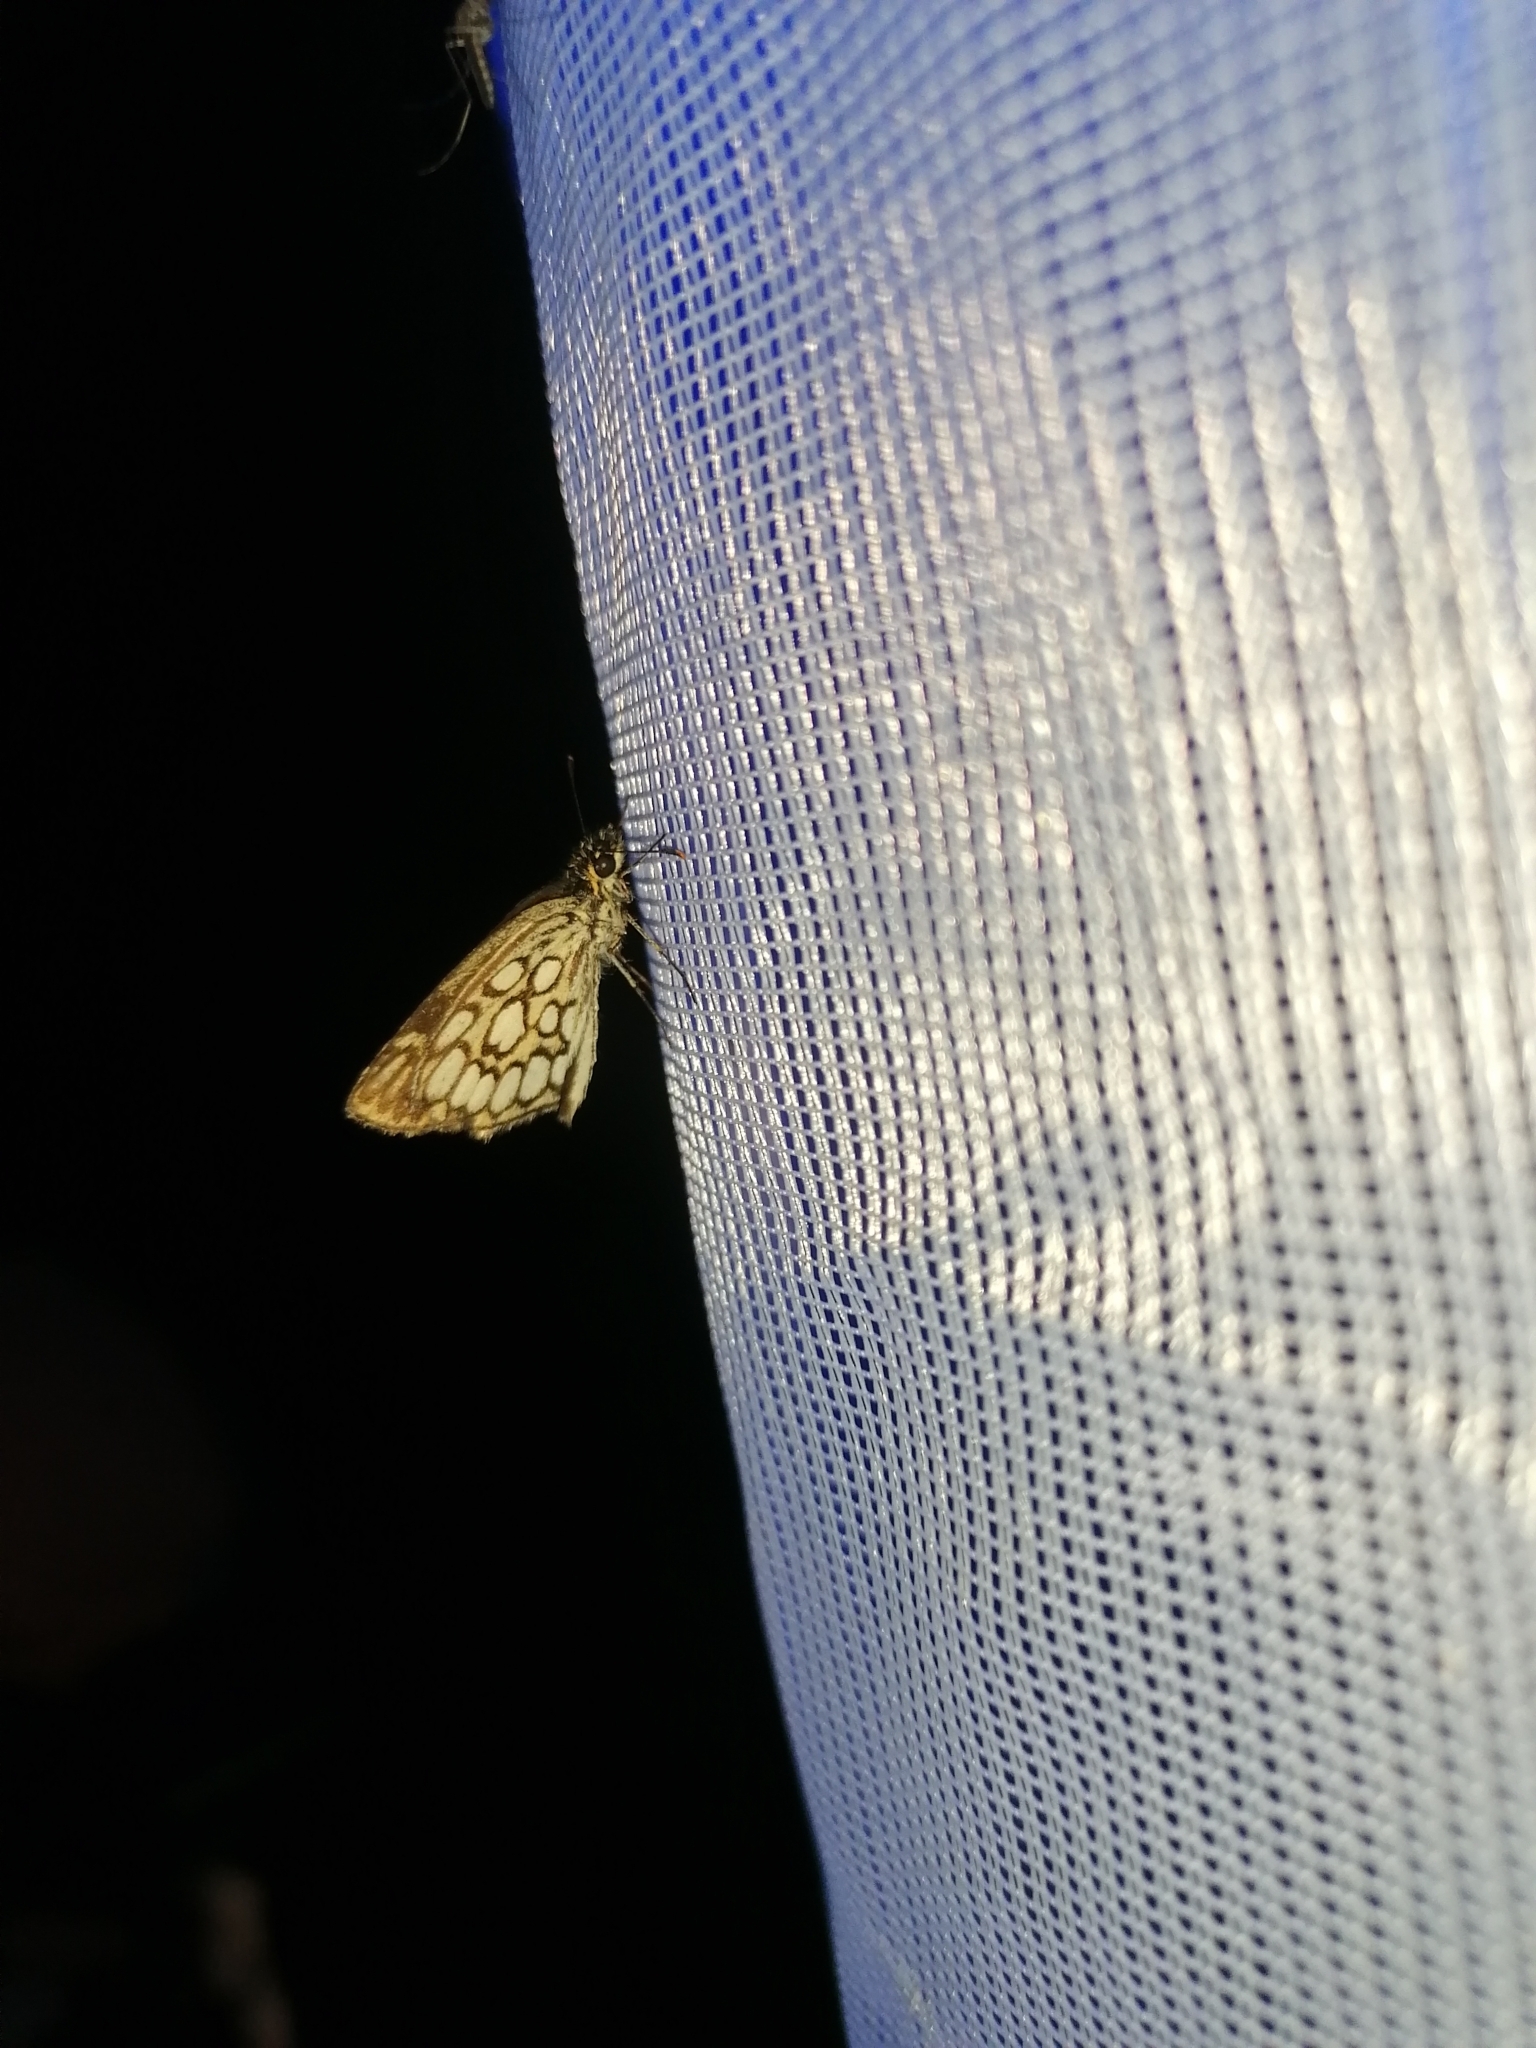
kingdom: Animalia
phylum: Arthropoda
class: Insecta
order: Lepidoptera
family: Hesperiidae
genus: Heteropterus
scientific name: Heteropterus morpheus
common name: Large chequered skipper
